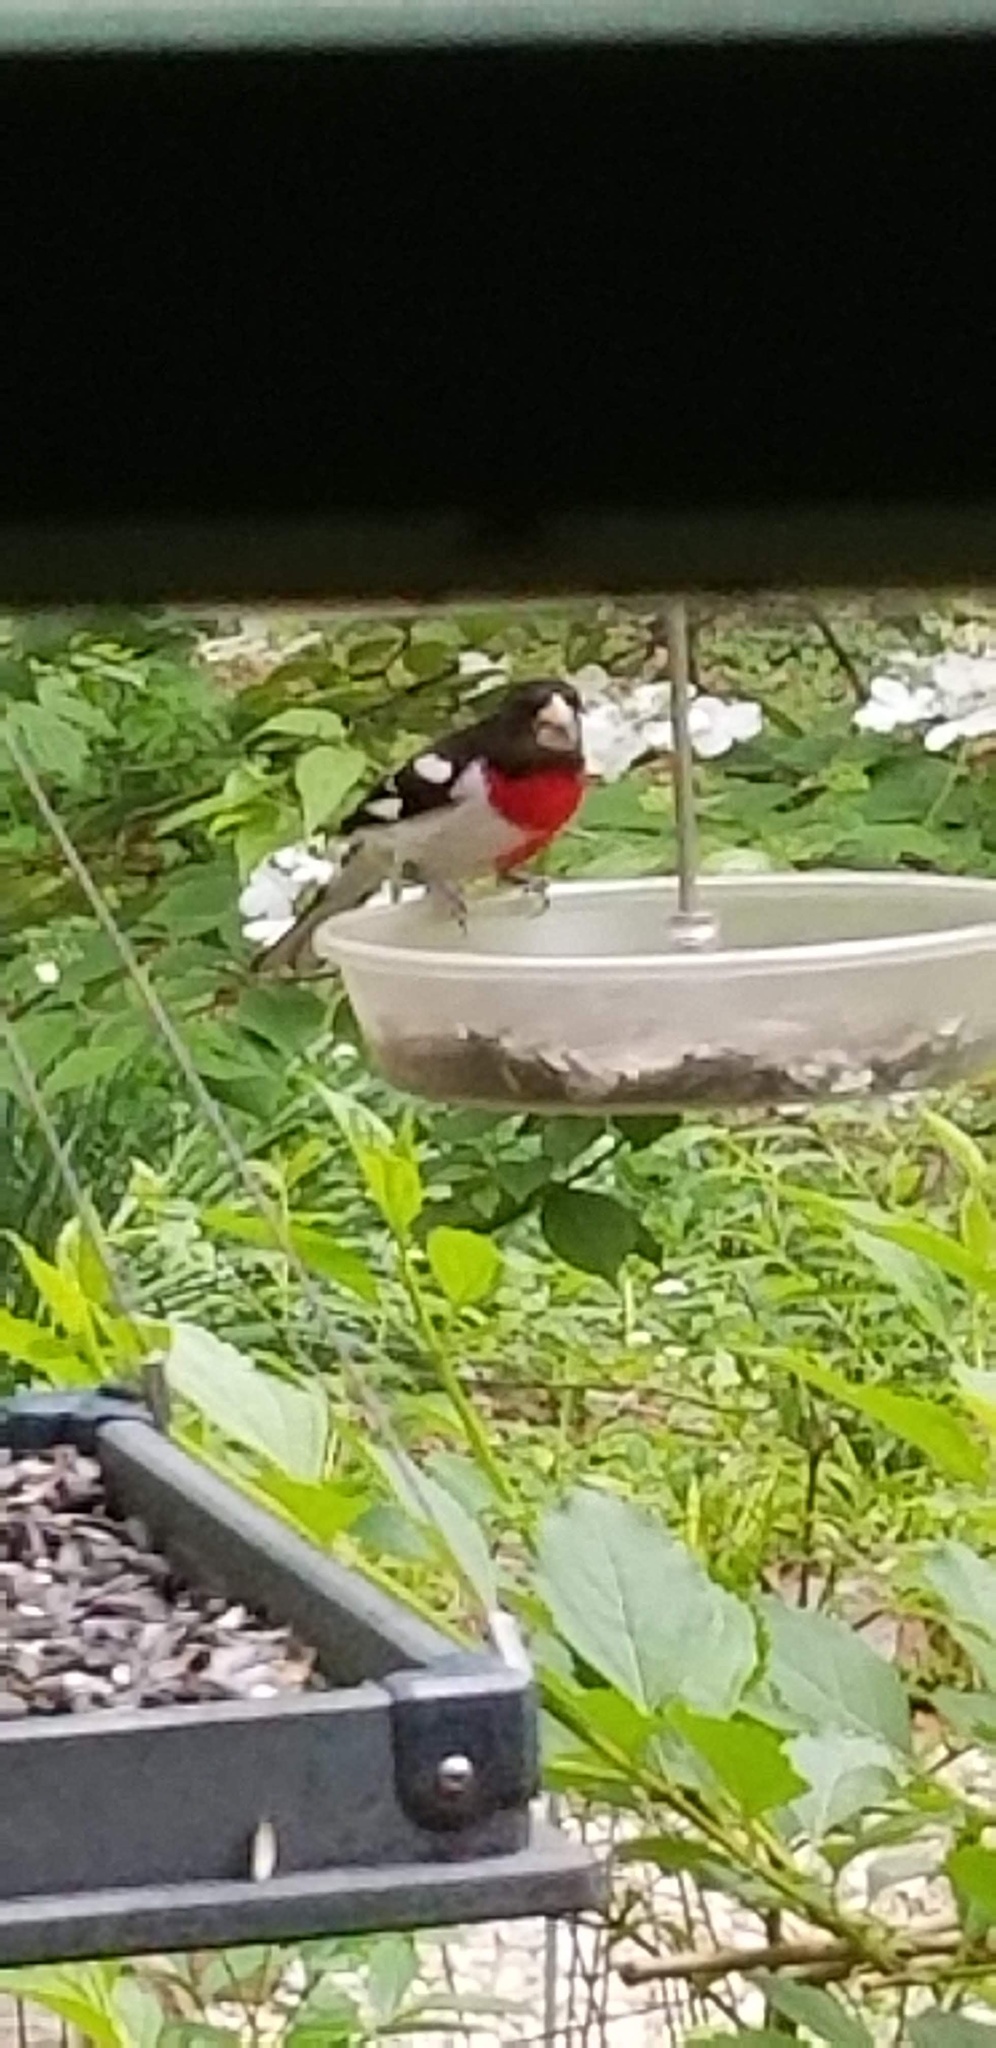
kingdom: Animalia
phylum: Chordata
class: Aves
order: Passeriformes
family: Cardinalidae
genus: Pheucticus
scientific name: Pheucticus ludovicianus
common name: Rose-breasted grosbeak
